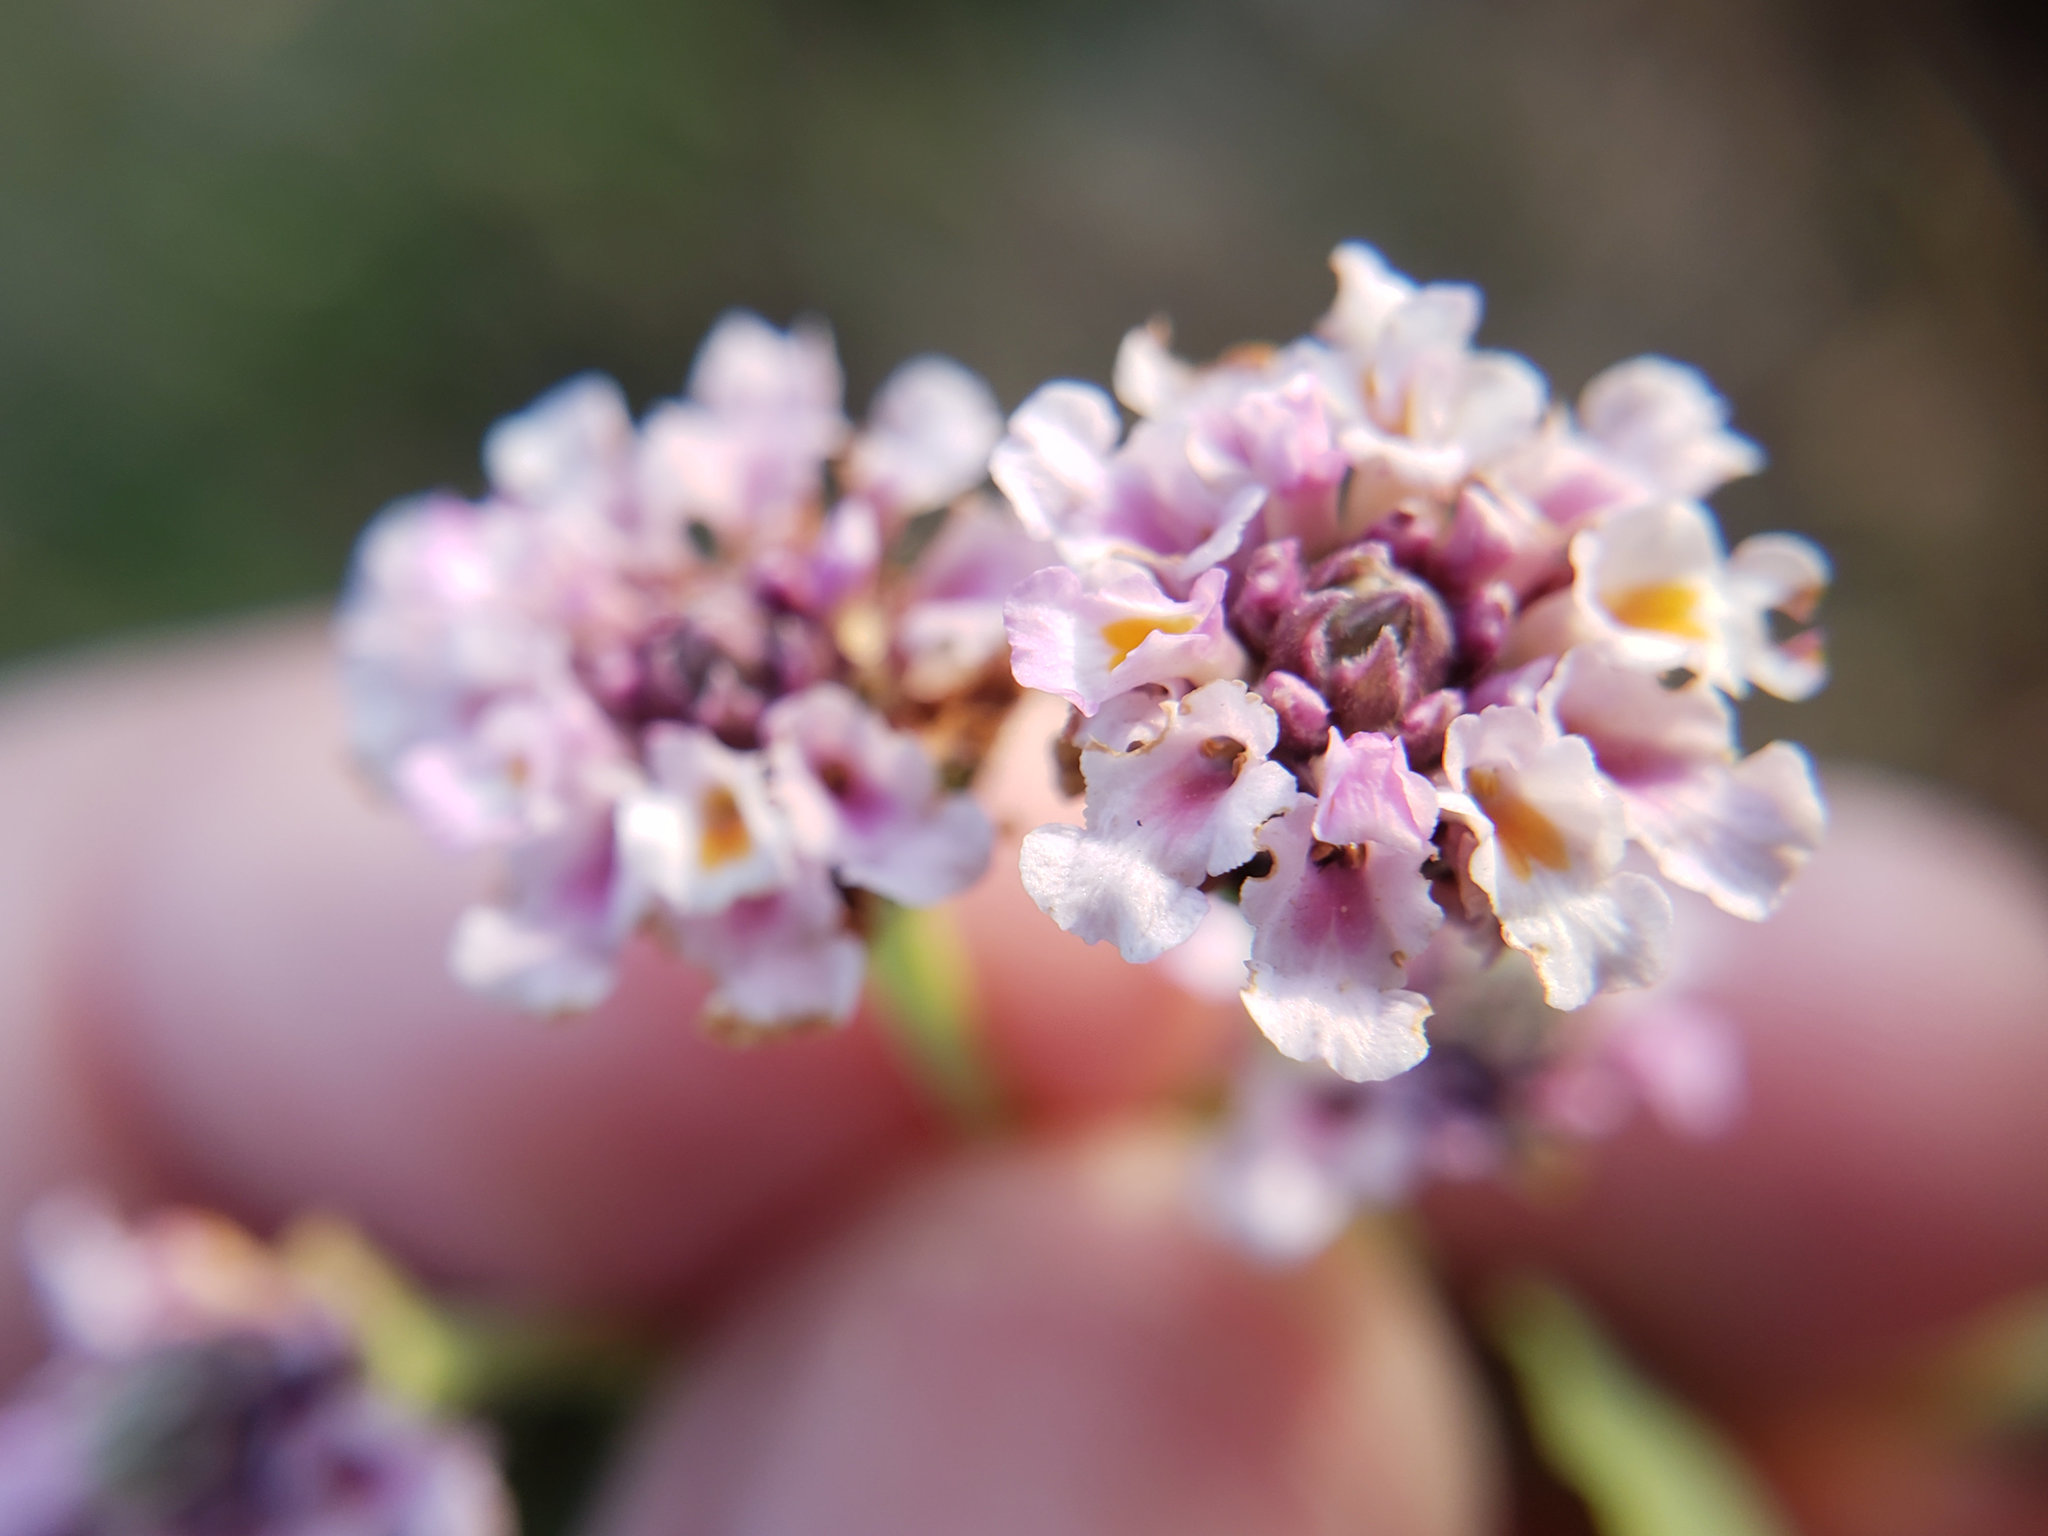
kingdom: Plantae
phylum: Tracheophyta
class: Magnoliopsida
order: Lamiales
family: Verbenaceae
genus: Phyla
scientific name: Phyla nodiflora
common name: Frogfruit
